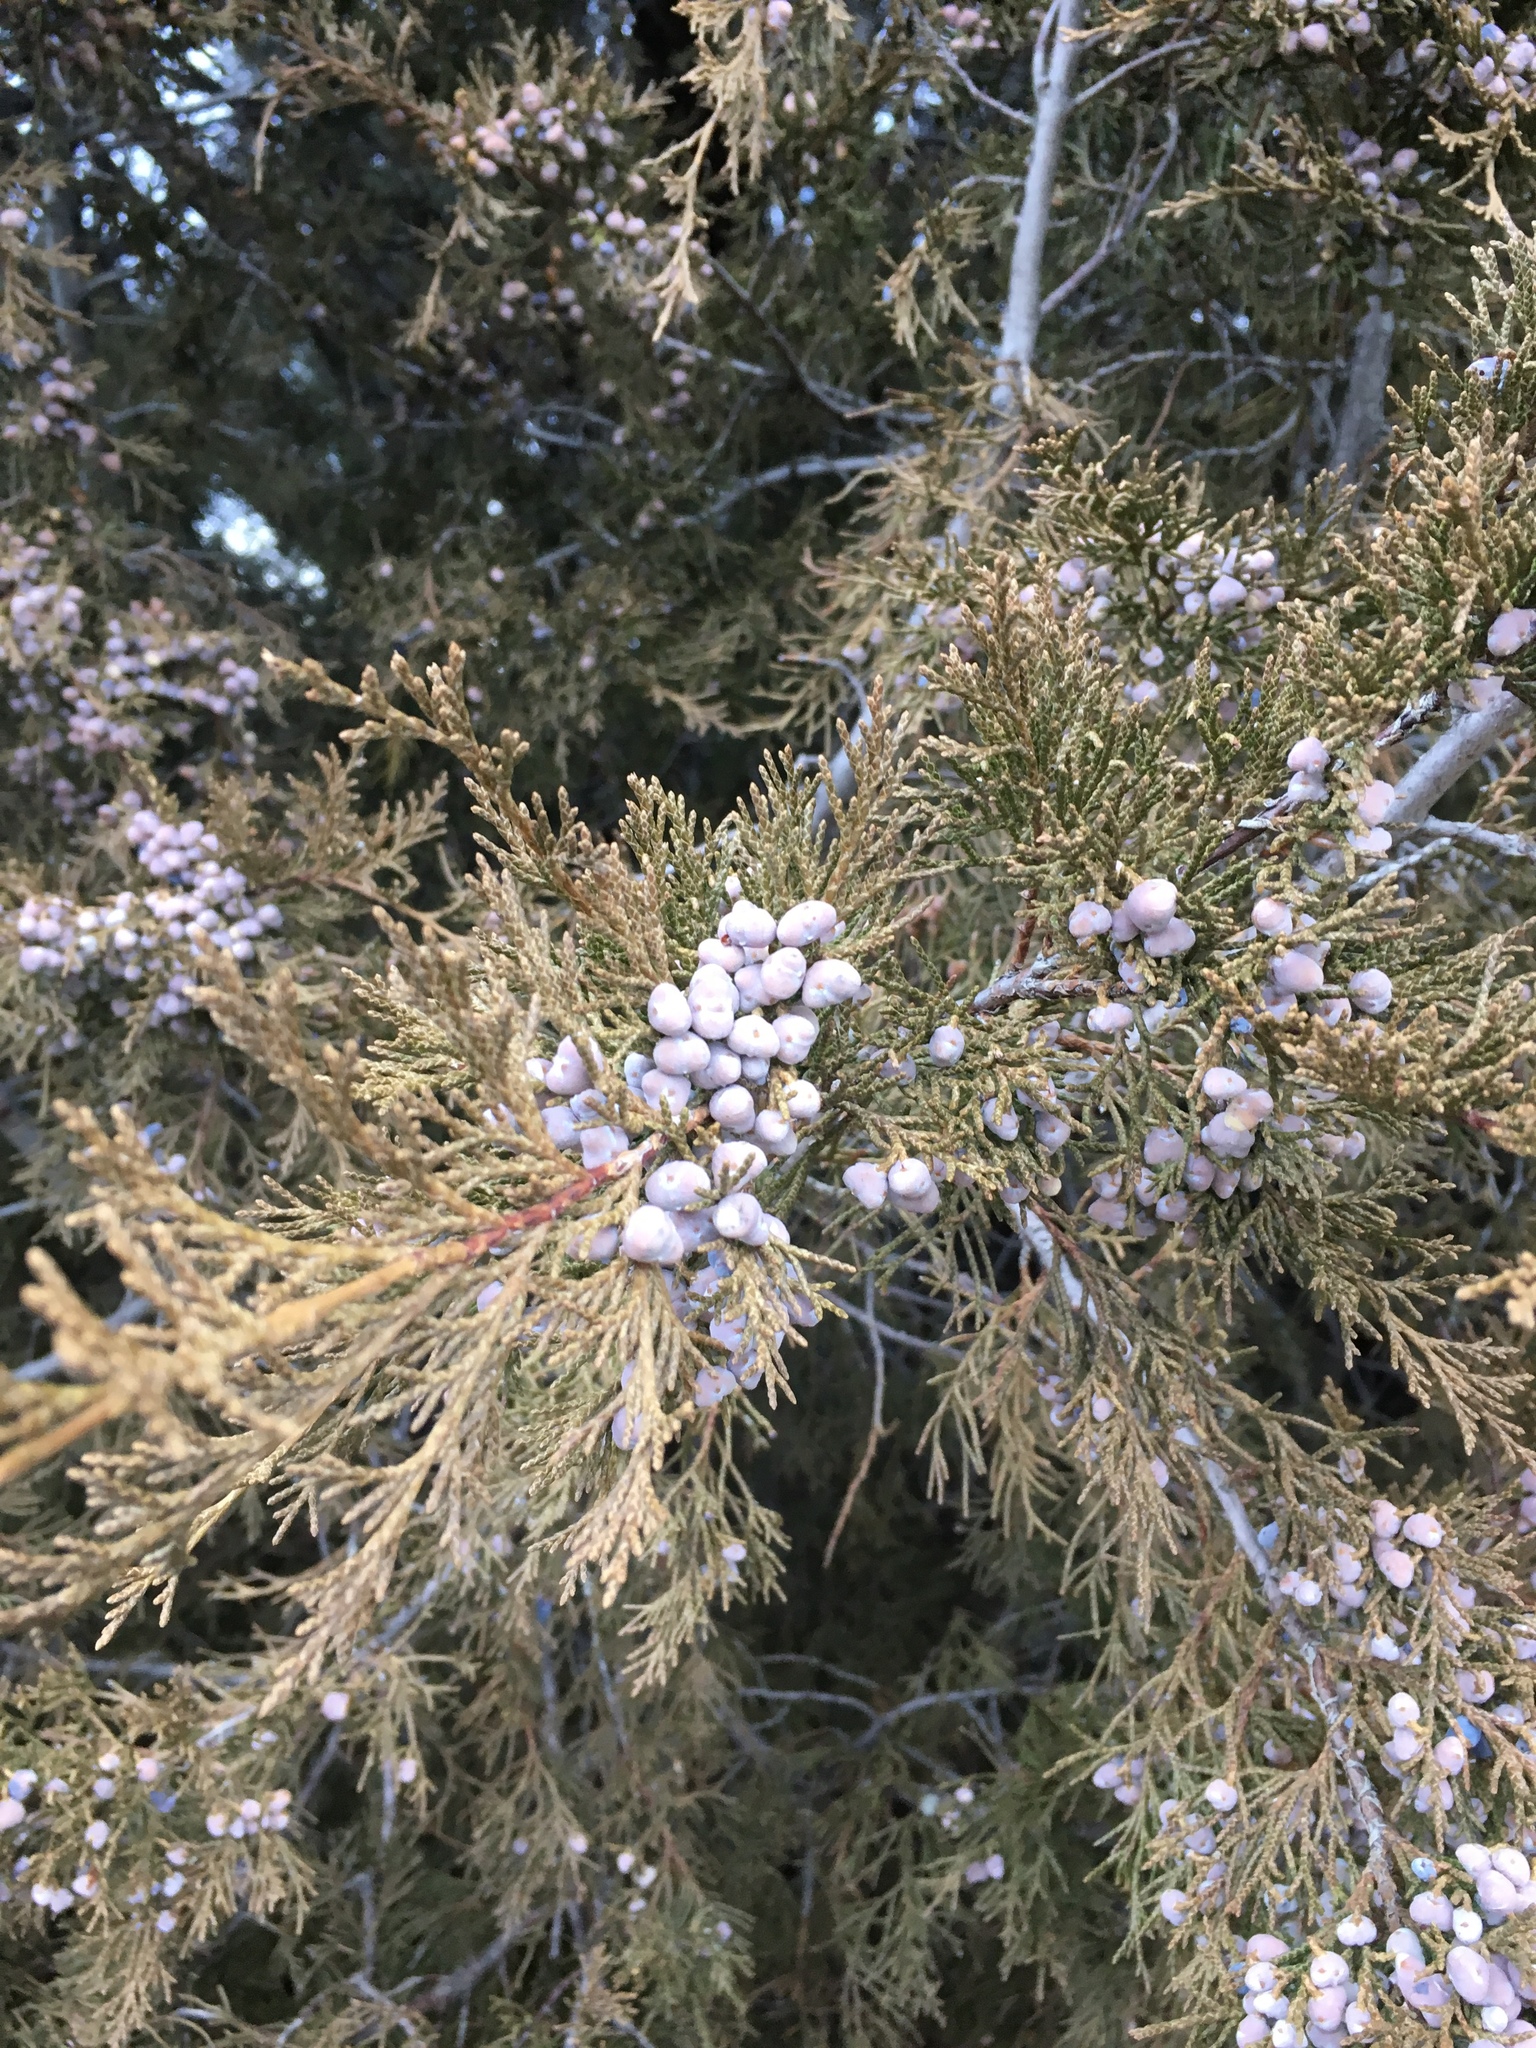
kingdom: Plantae
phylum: Tracheophyta
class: Pinopsida
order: Pinales
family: Cupressaceae
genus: Juniperus
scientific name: Juniperus scopulorum
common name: Rocky mountain juniper
